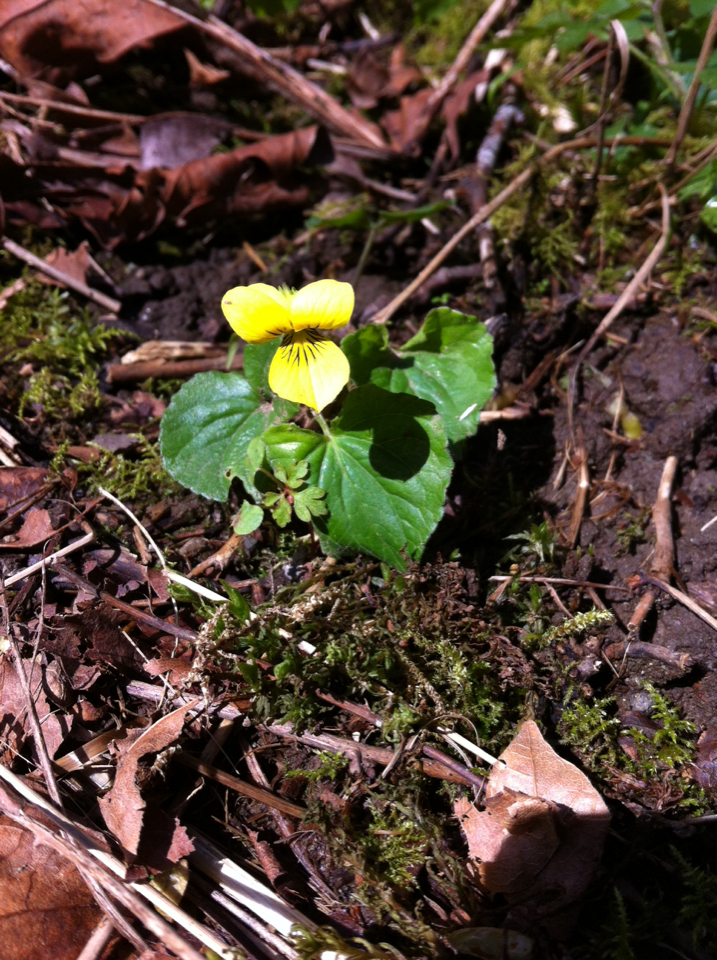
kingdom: Plantae
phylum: Tracheophyta
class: Magnoliopsida
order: Malpighiales
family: Violaceae
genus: Viola
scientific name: Viola glabella
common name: Stream violet
